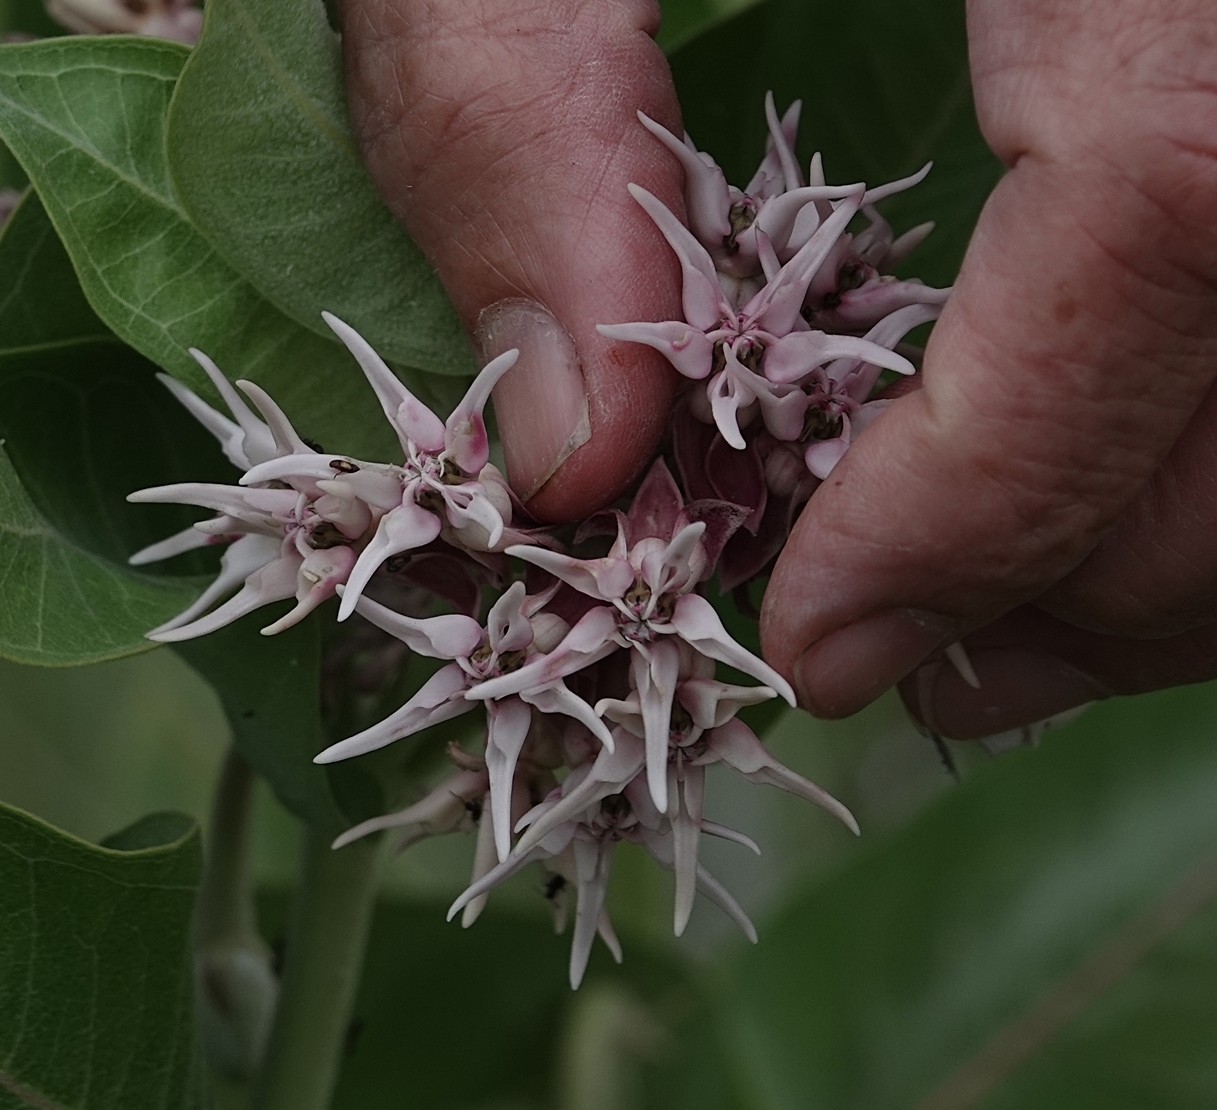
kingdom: Plantae
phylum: Tracheophyta
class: Magnoliopsida
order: Gentianales
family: Apocynaceae
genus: Asclepias
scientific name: Asclepias speciosa
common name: Showy milkweed
